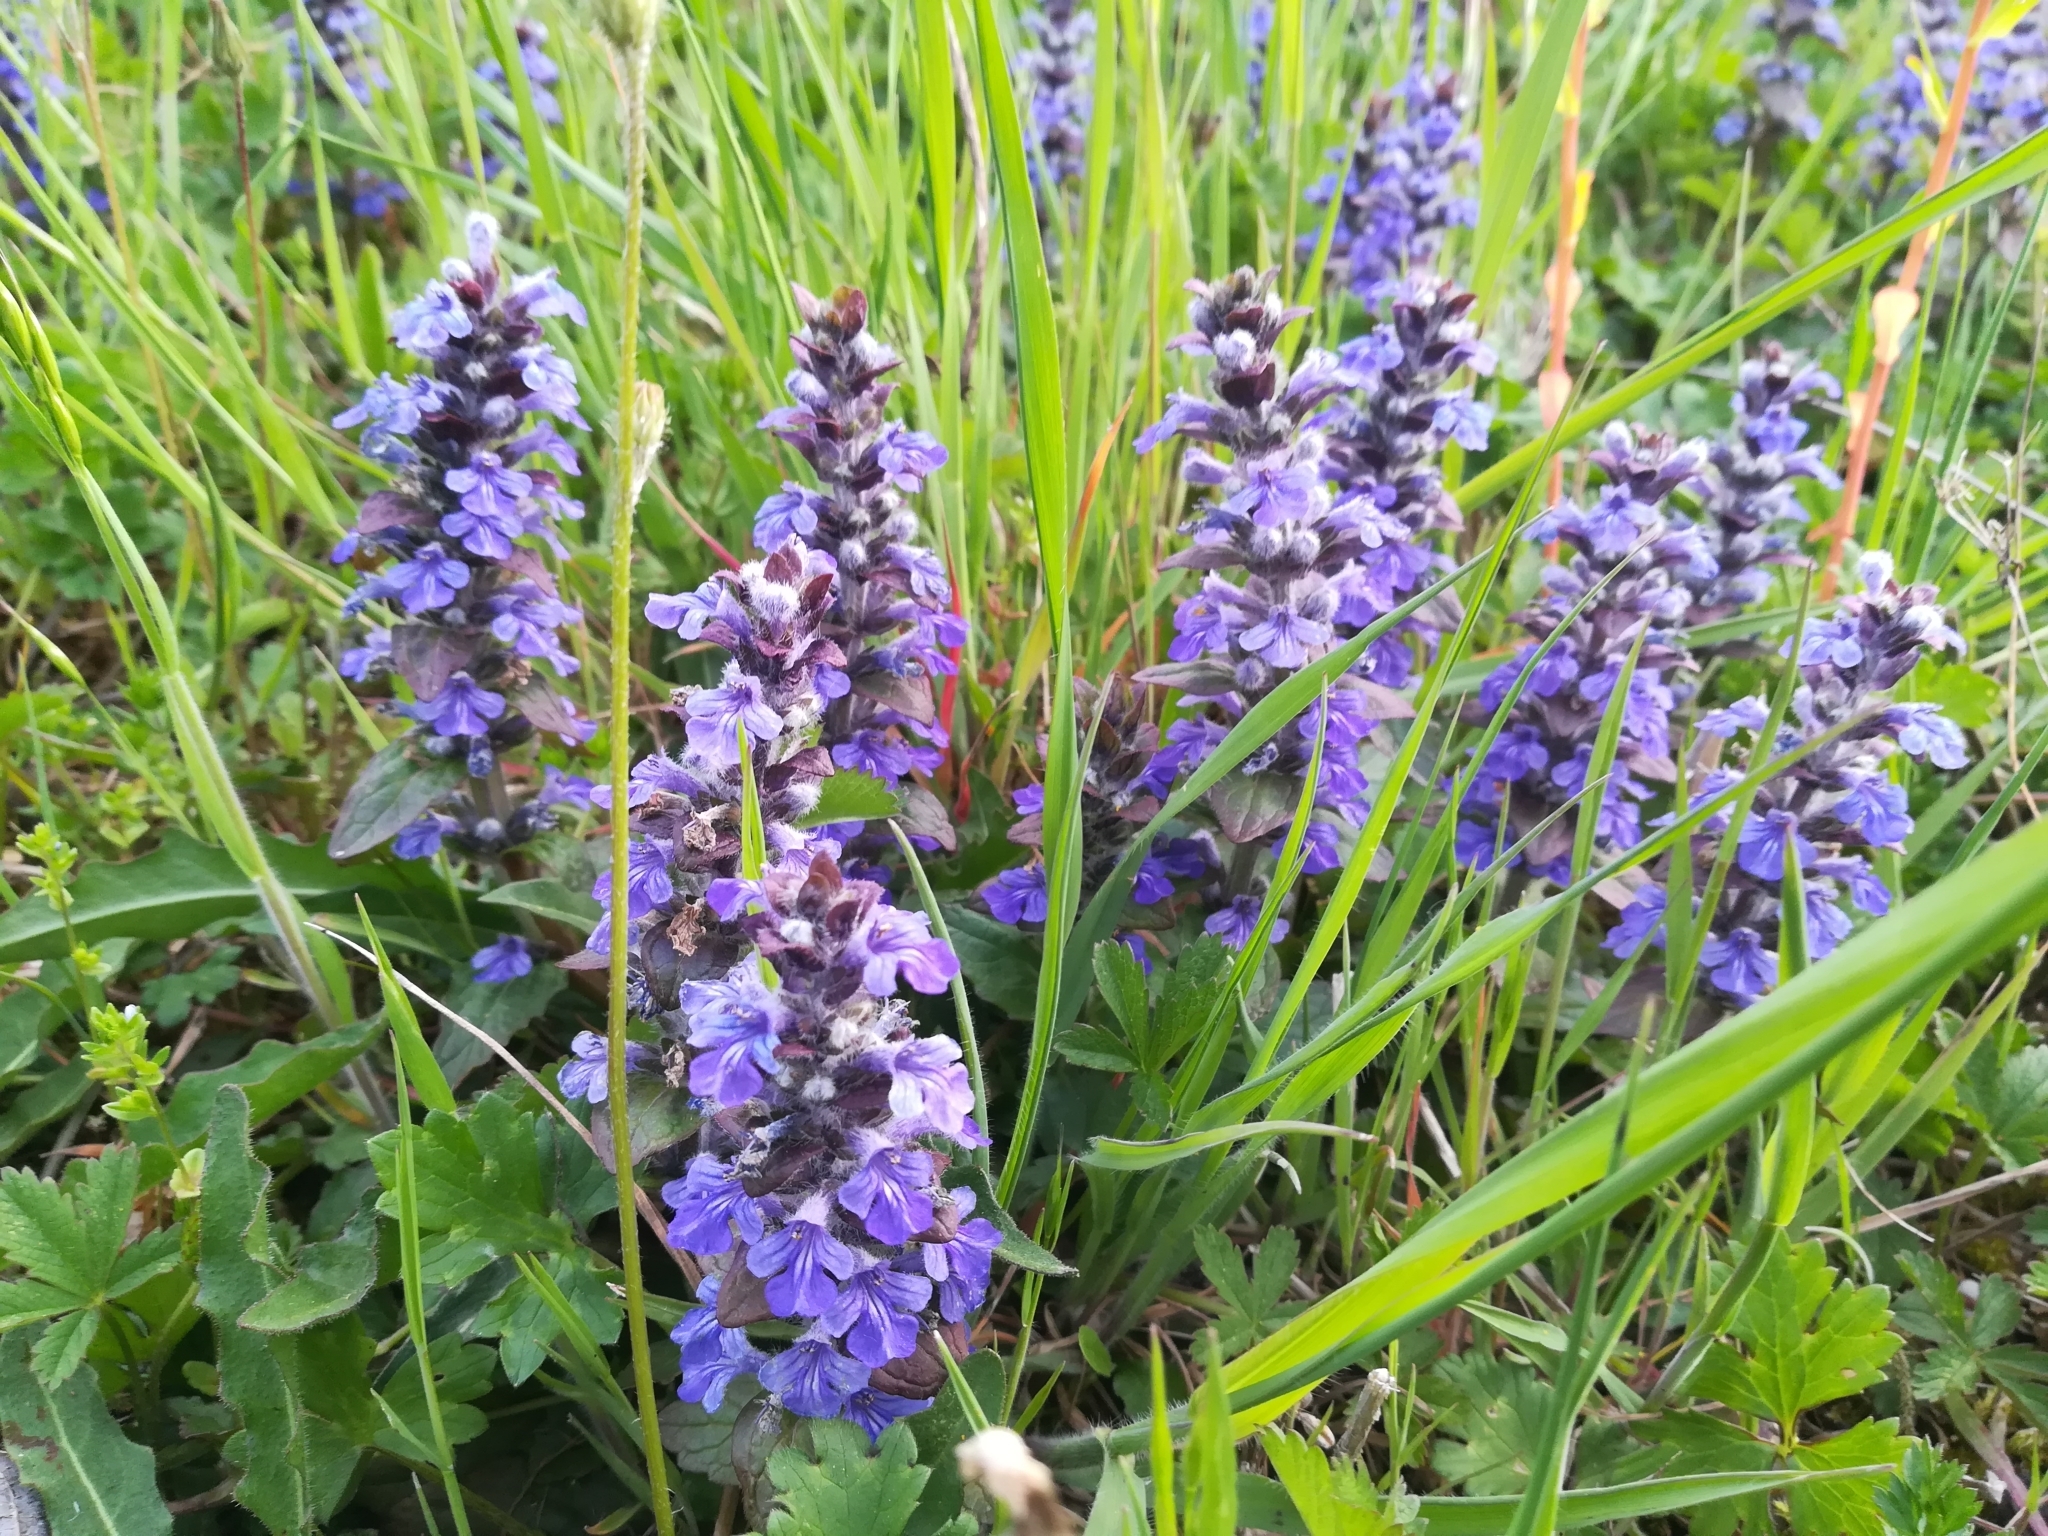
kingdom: Plantae
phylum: Tracheophyta
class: Magnoliopsida
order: Lamiales
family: Lamiaceae
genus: Ajuga
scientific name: Ajuga reptans
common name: Bugle
